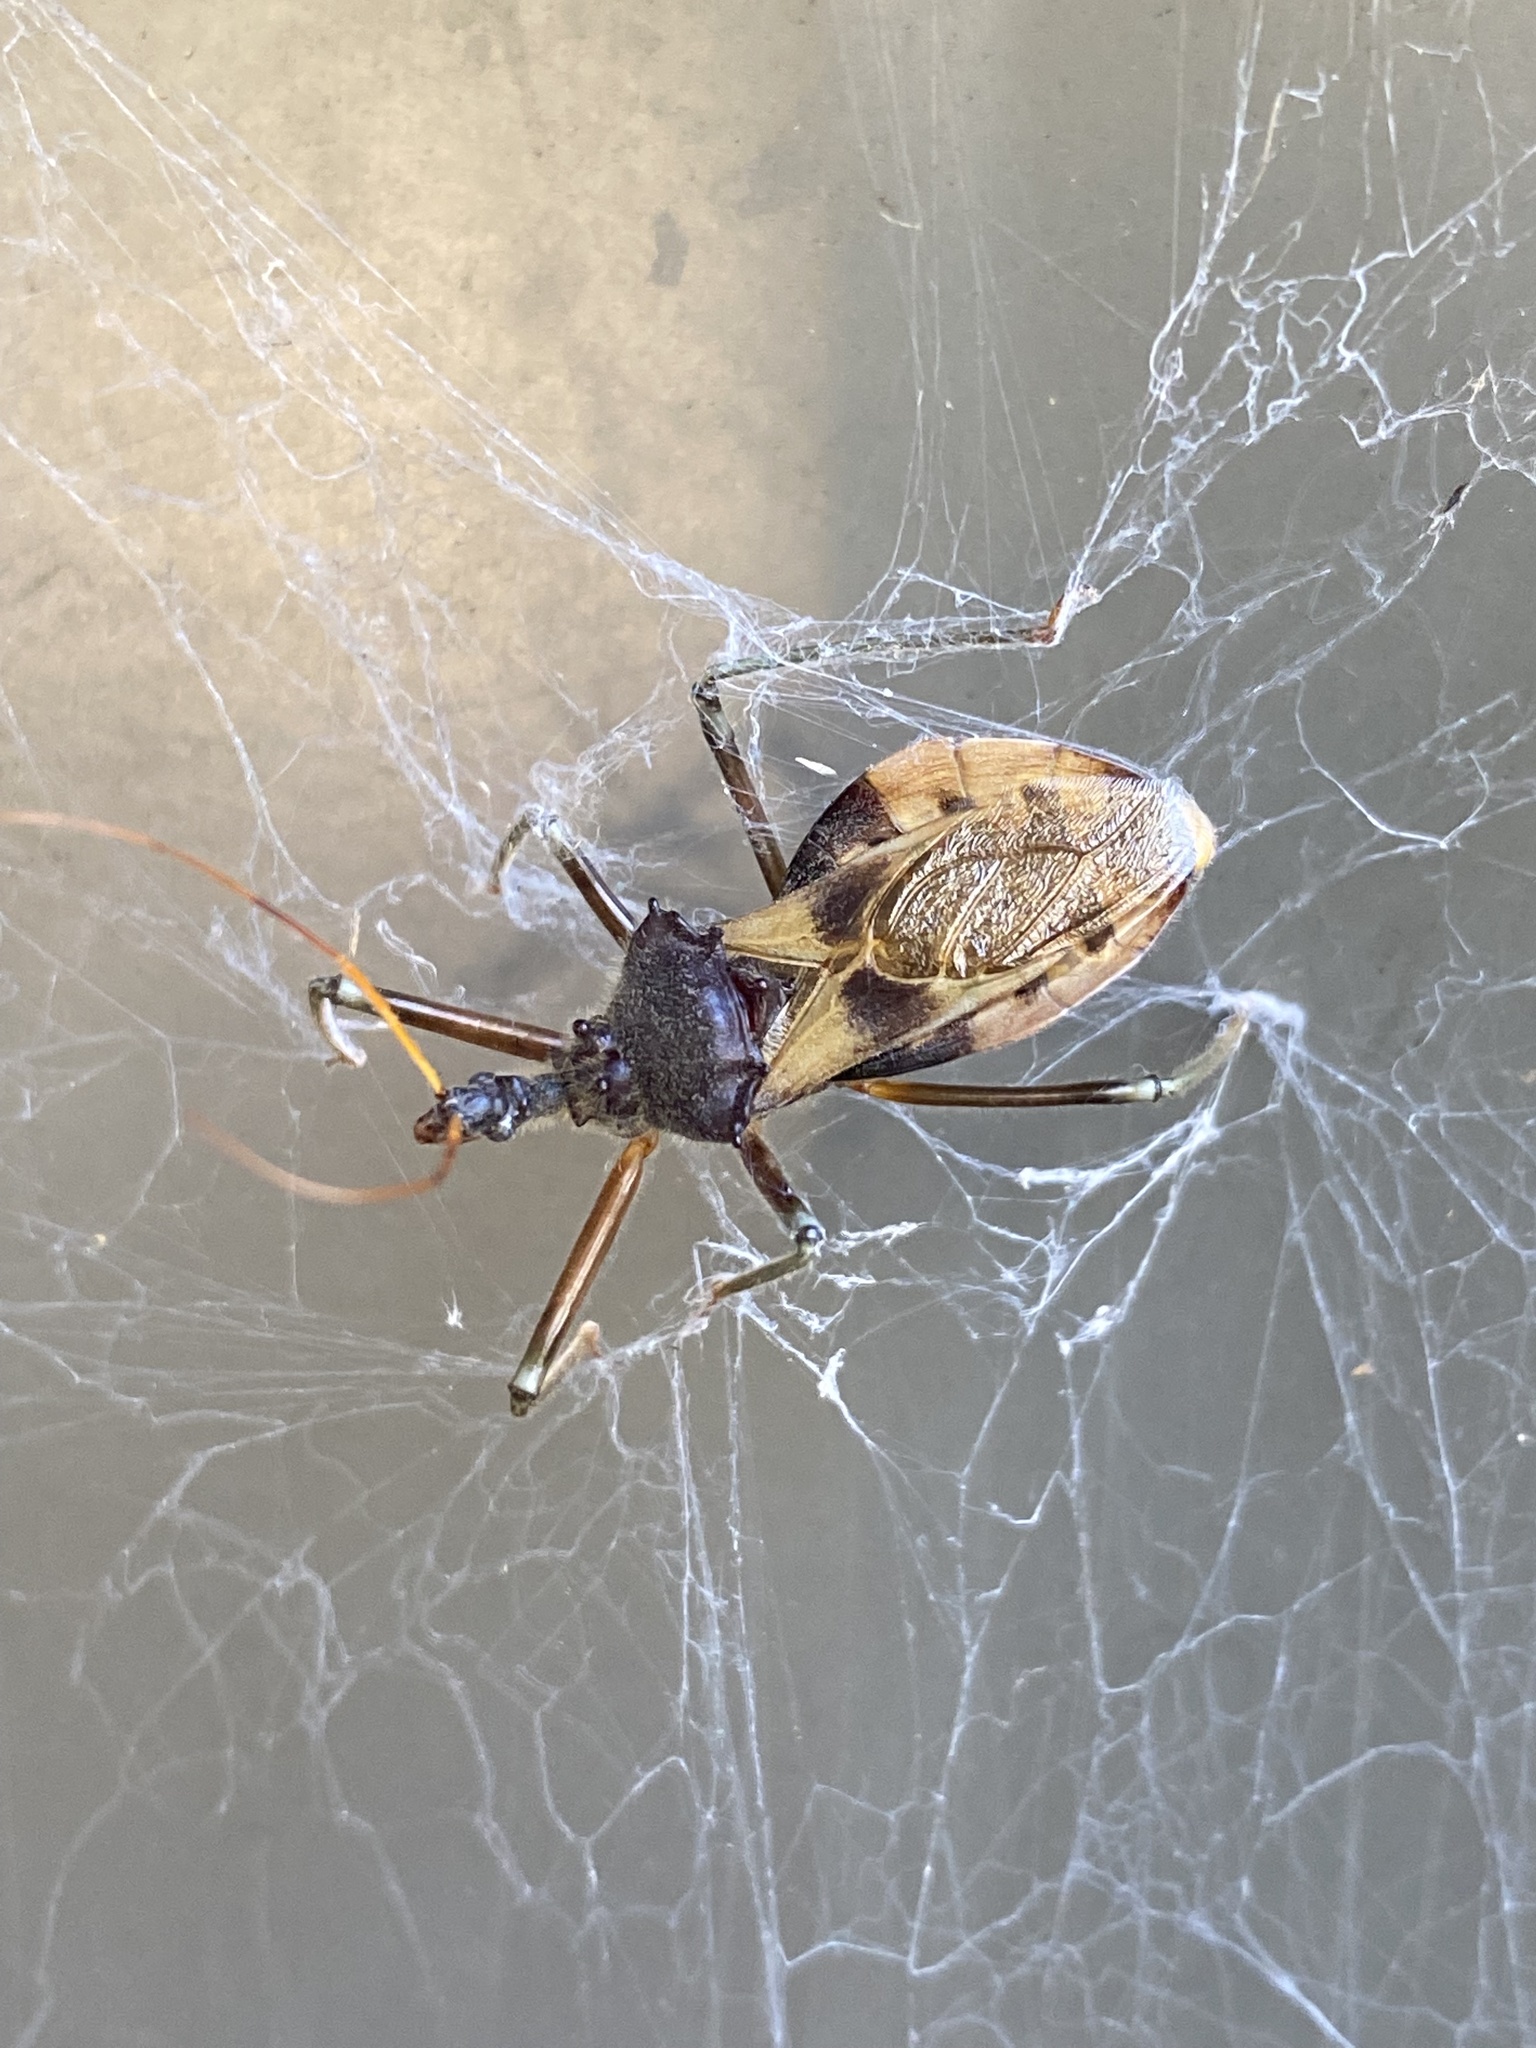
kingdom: Animalia
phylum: Arthropoda
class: Insecta
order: Hemiptera
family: Reduviidae
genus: Pristhesancus
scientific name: Pristhesancus plagipennis
